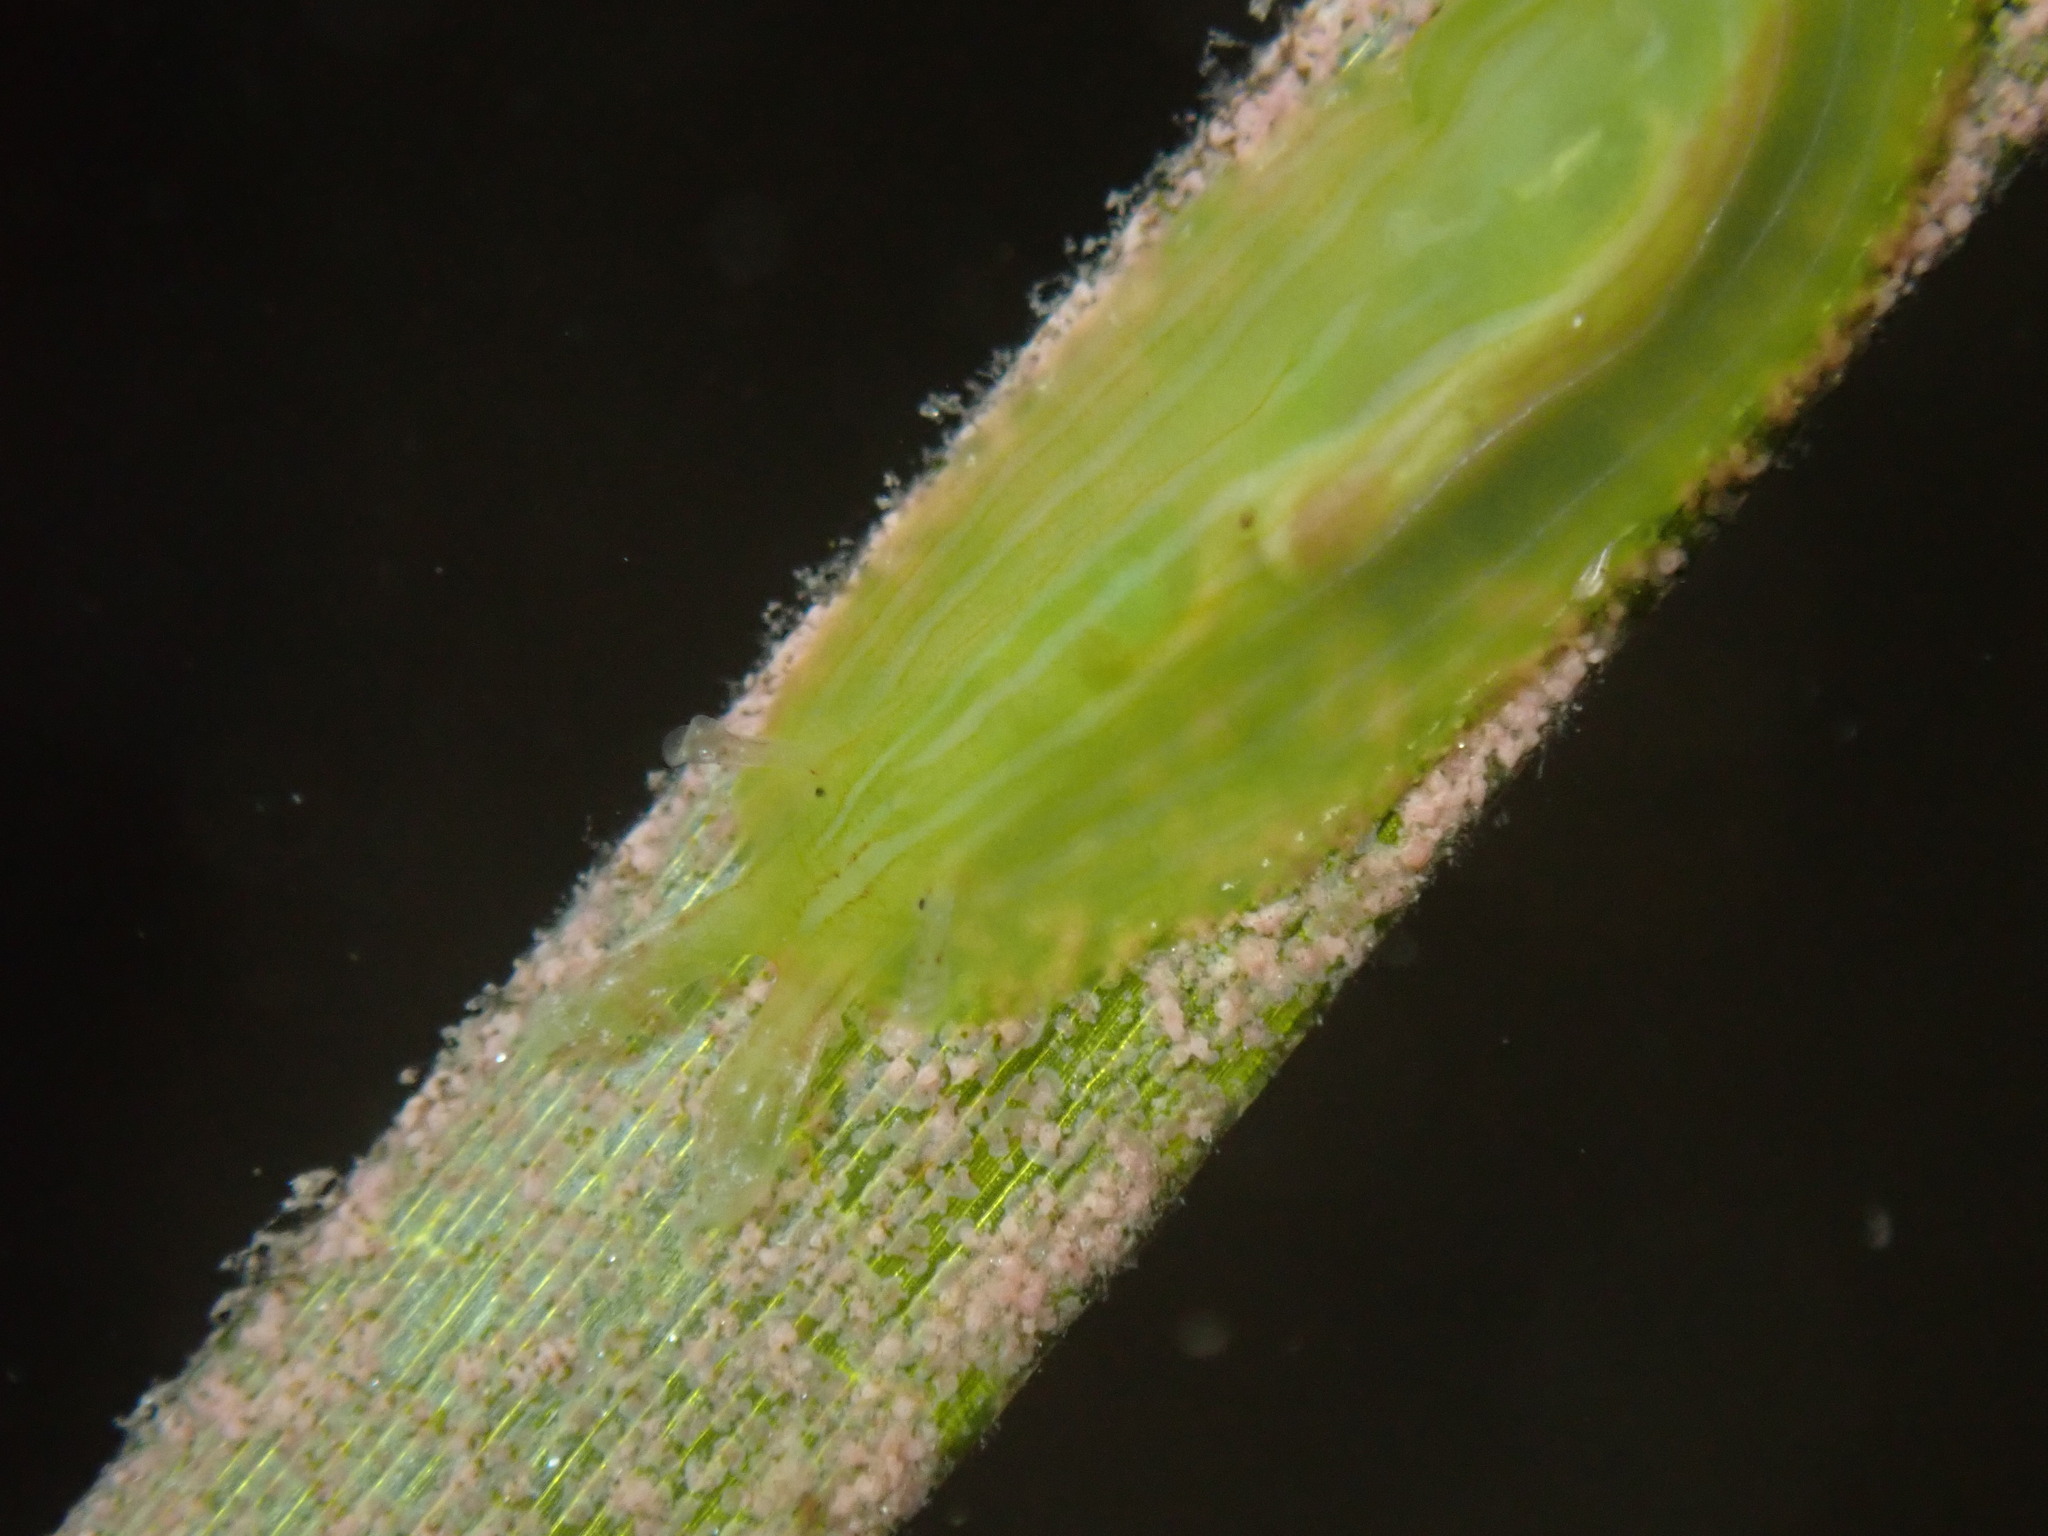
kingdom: Animalia
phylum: Mollusca
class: Gastropoda
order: Aplysiida
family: Aplysiidae
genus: Phyllaplysia
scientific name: Phyllaplysia taylori
